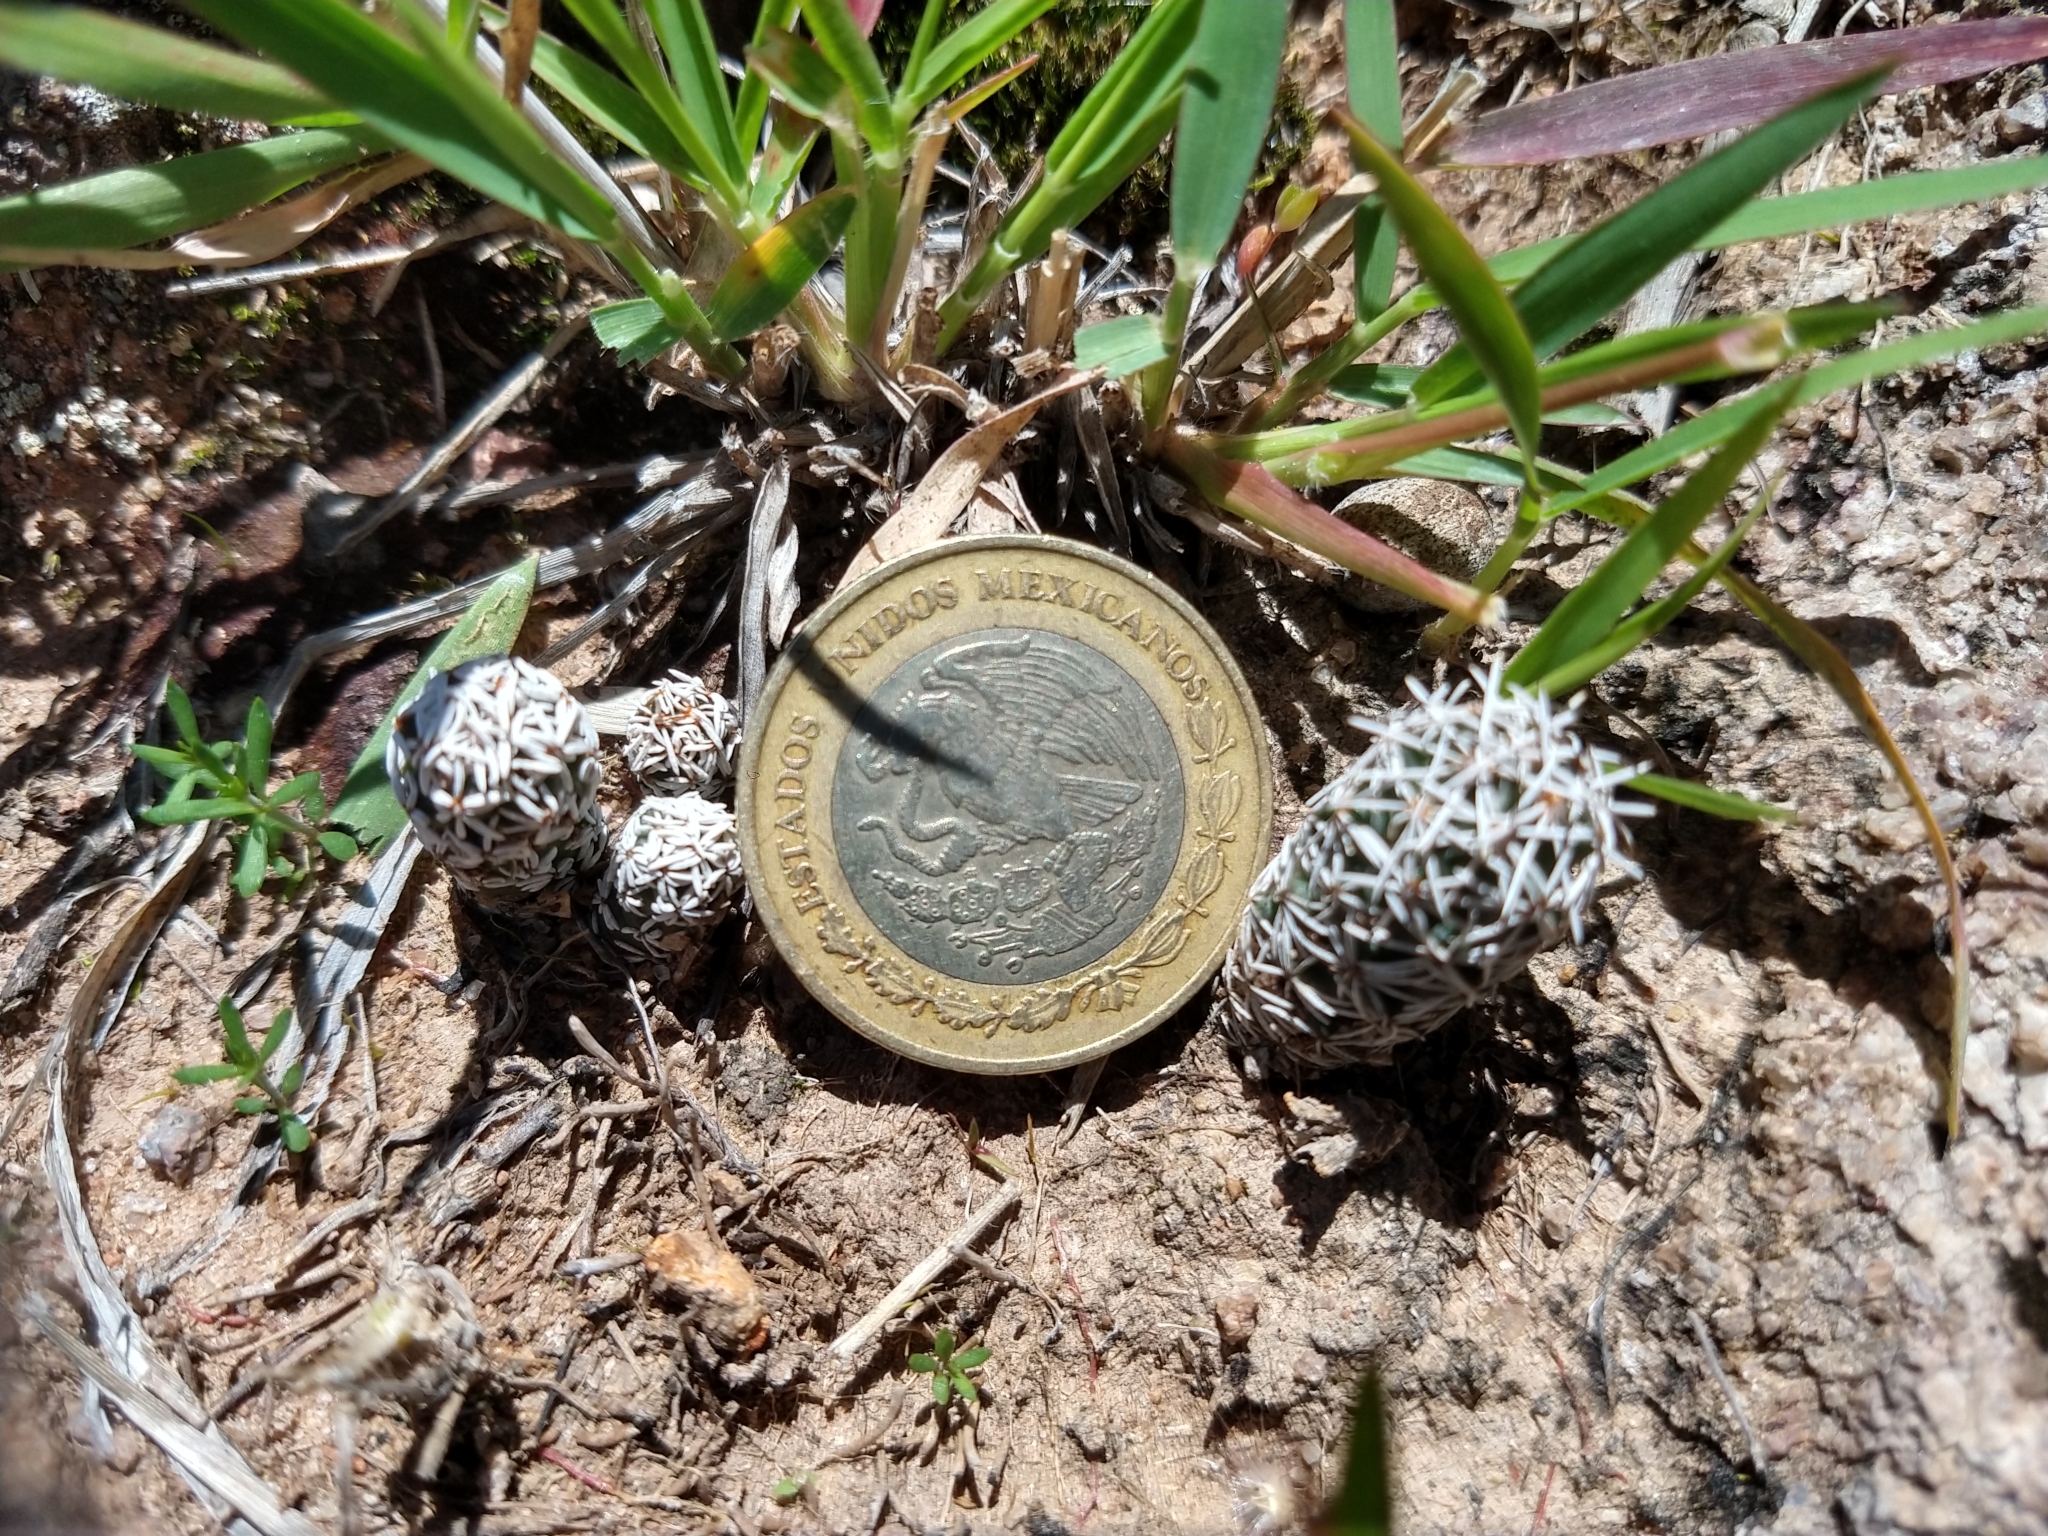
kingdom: Plantae
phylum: Tracheophyta
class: Magnoliopsida
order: Caryophyllales
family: Cactaceae
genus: Coryphantha
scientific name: Coryphantha clavata
